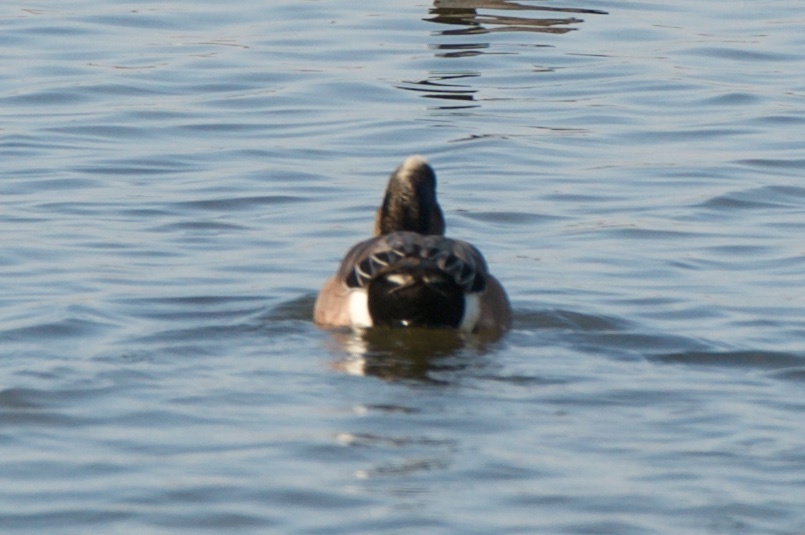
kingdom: Animalia
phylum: Chordata
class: Aves
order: Anseriformes
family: Anatidae
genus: Mareca
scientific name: Mareca americana
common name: American wigeon
